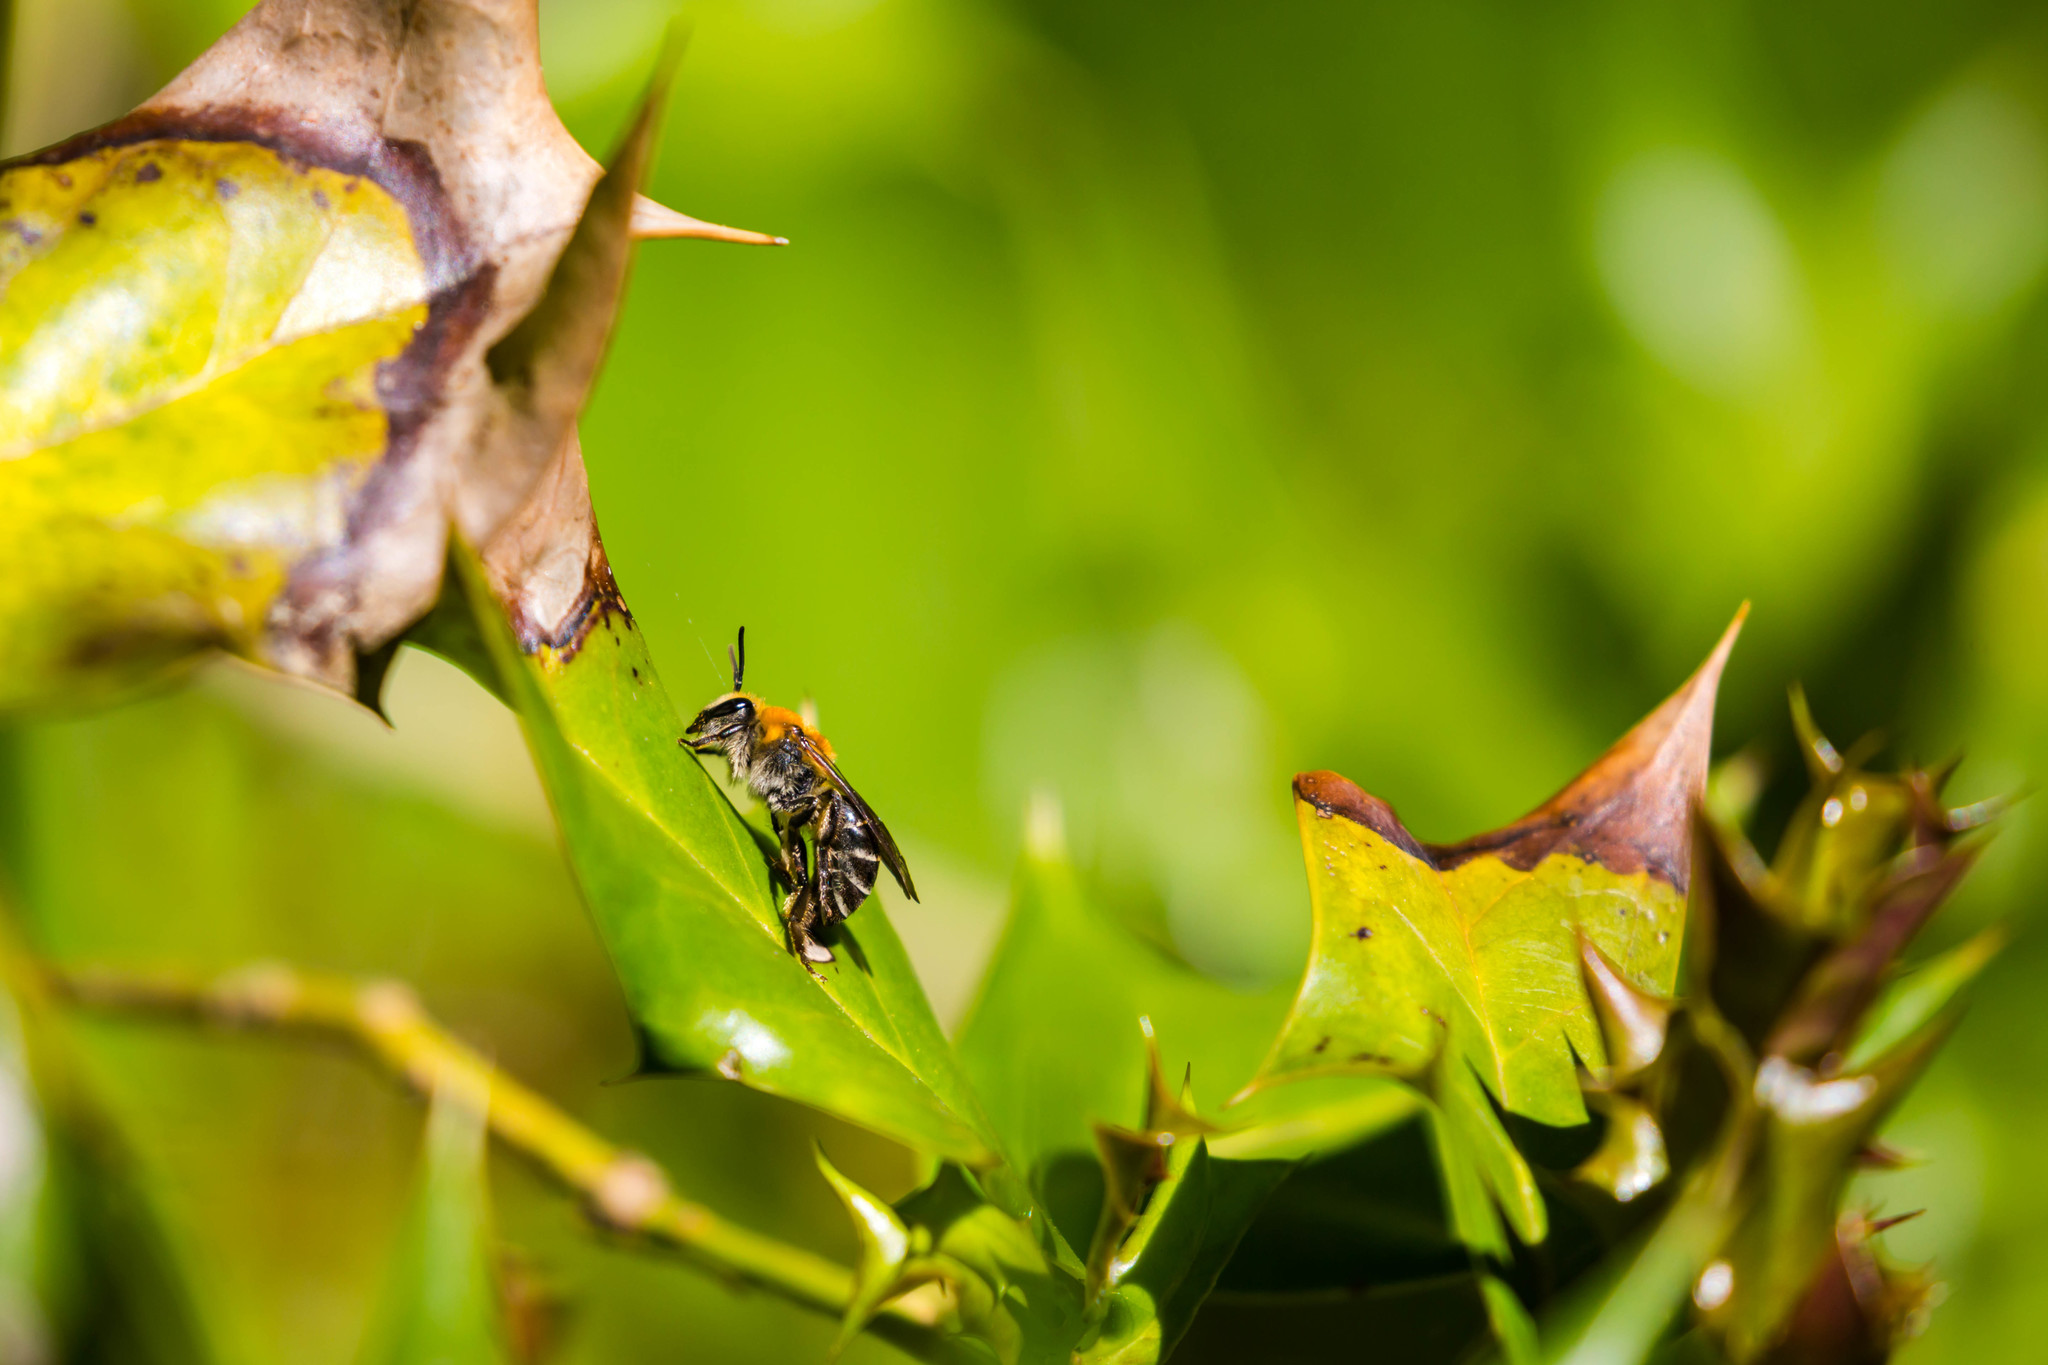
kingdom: Animalia
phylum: Arthropoda
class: Insecta
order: Hymenoptera
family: Colletidae
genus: Colletes
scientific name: Colletes thoracicus
